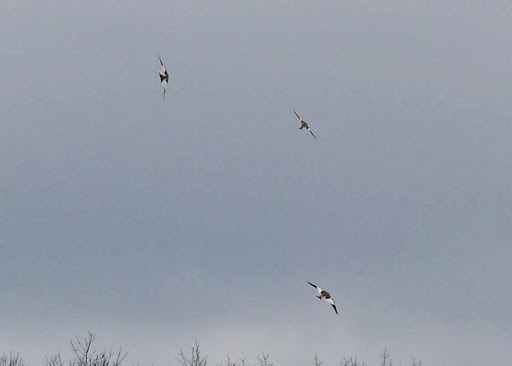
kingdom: Animalia
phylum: Chordata
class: Aves
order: Passeriformes
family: Calcariidae
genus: Plectrophenax
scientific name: Plectrophenax nivalis
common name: Snow bunting
